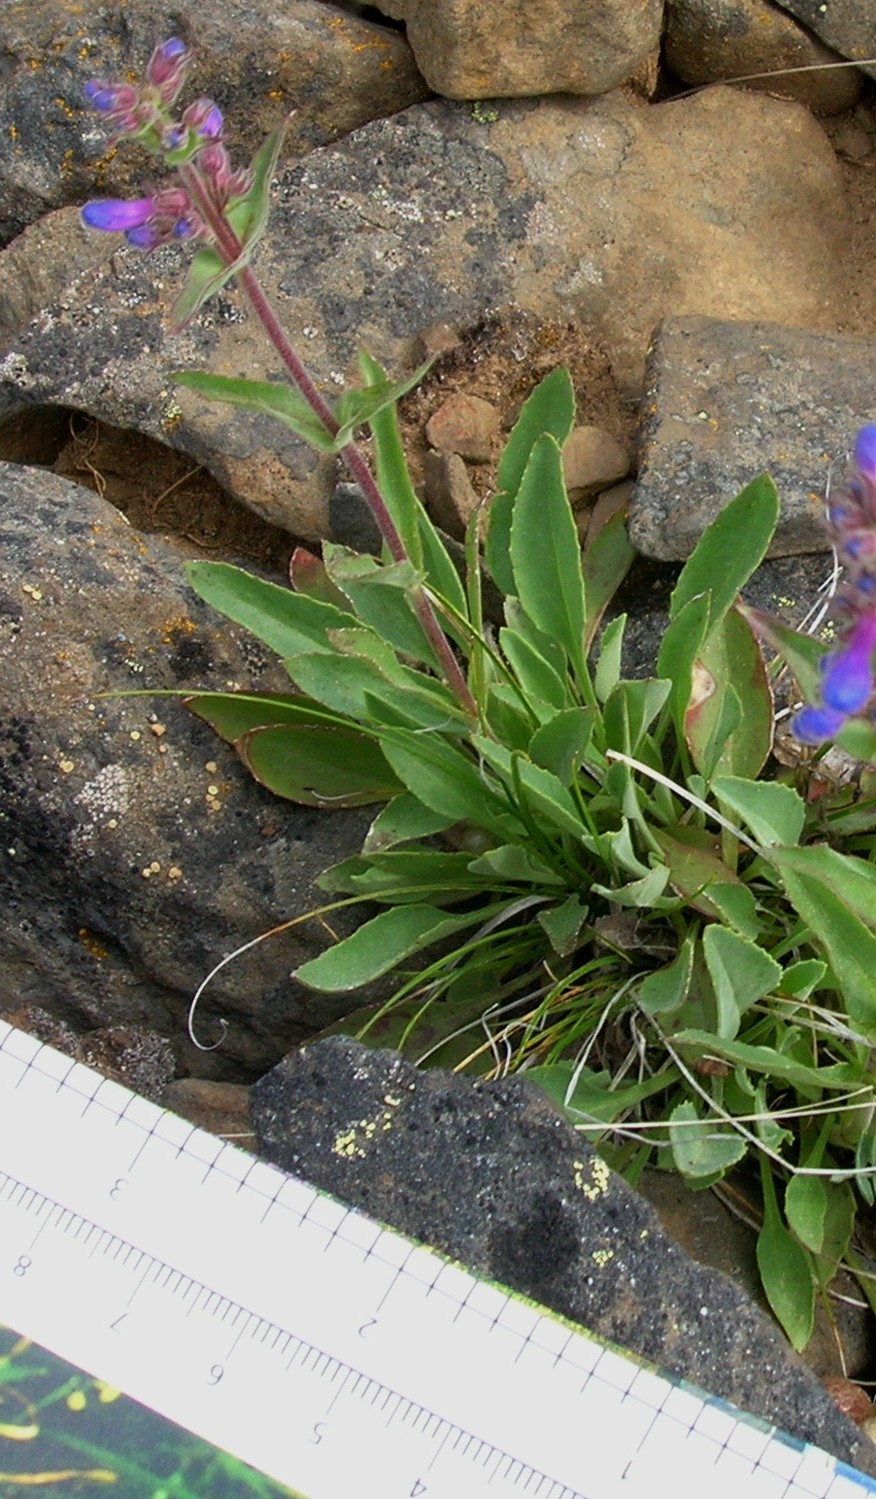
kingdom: Plantae
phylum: Tracheophyta
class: Magnoliopsida
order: Lamiales
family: Plantaginaceae
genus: Penstemon
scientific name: Penstemon pruinosus
